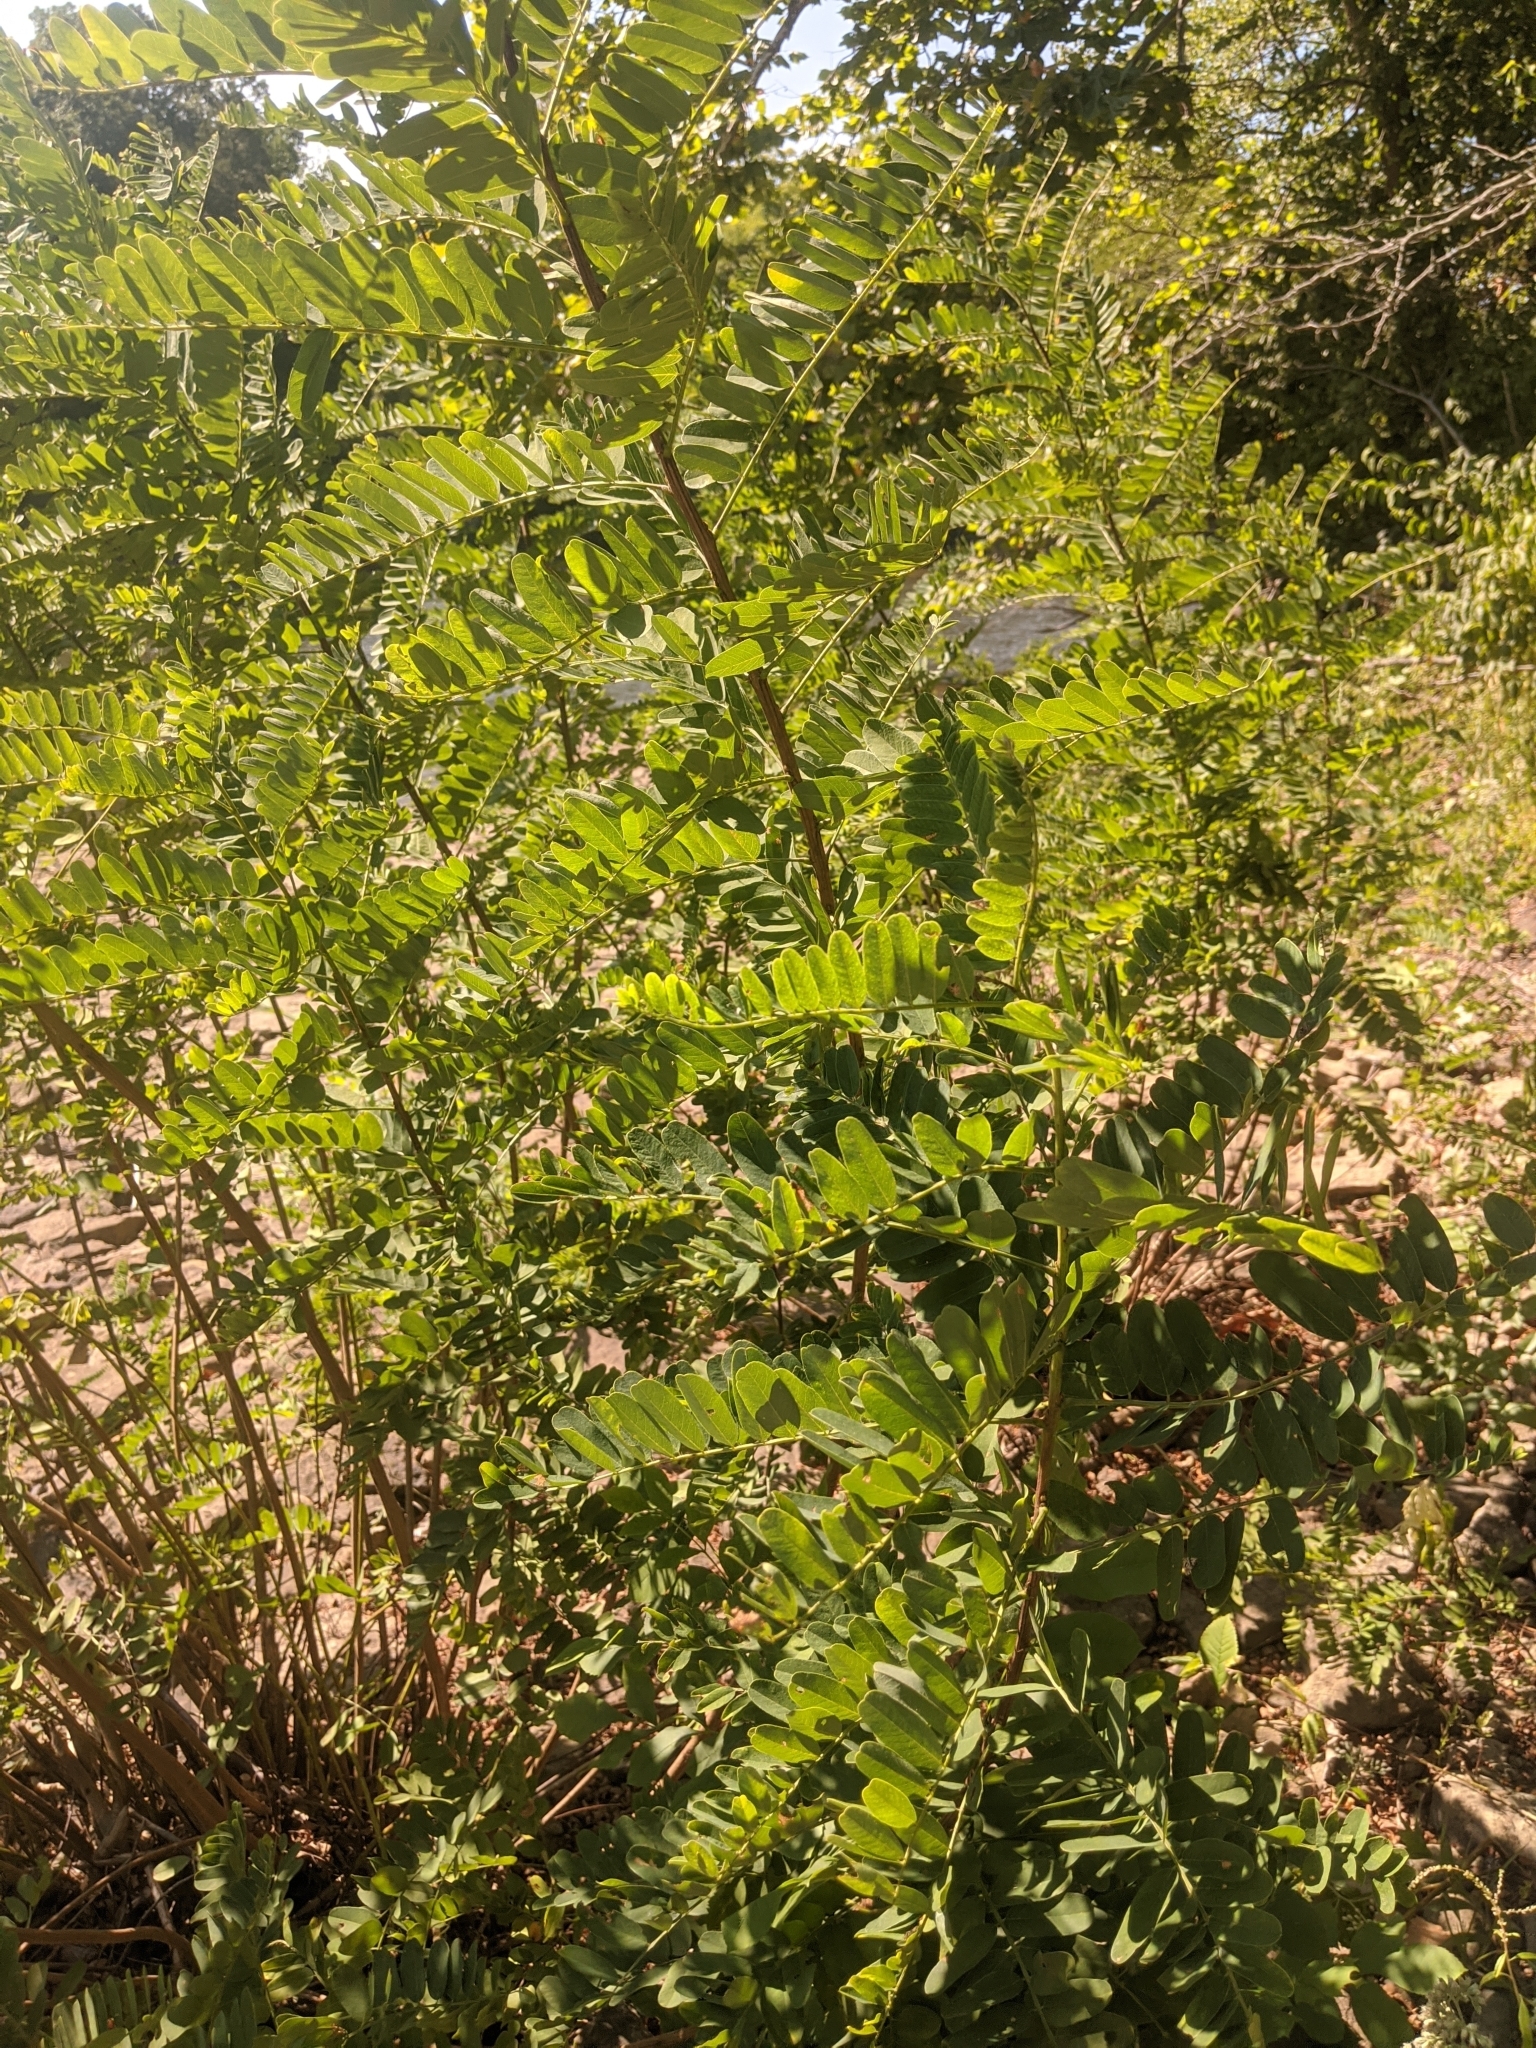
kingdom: Plantae
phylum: Tracheophyta
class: Magnoliopsida
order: Fabales
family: Fabaceae
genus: Amorpha
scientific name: Amorpha fruticosa
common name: False indigo
